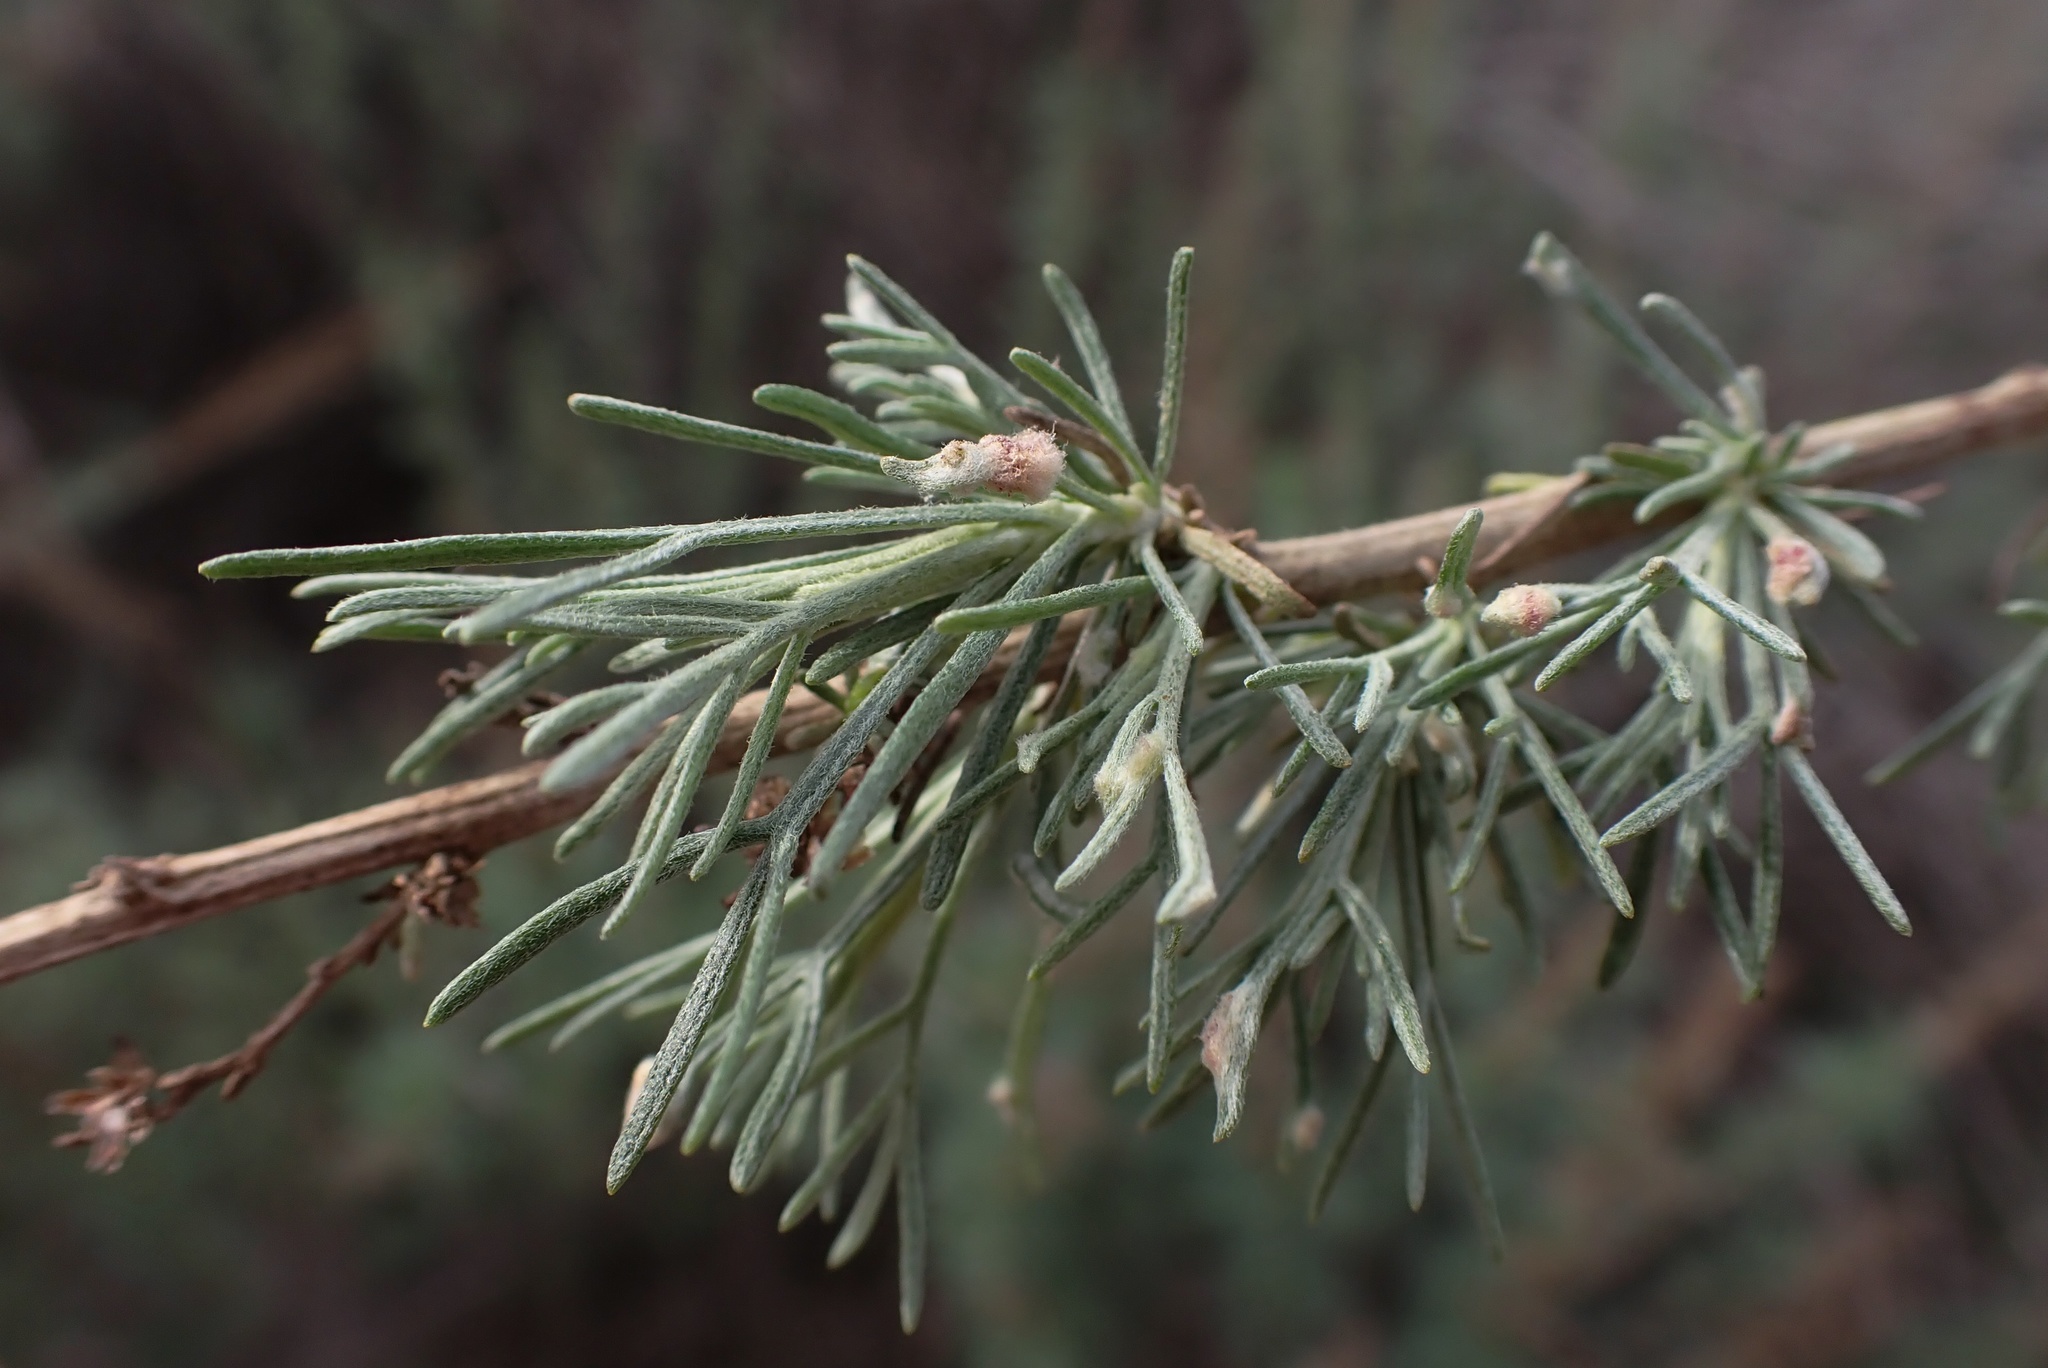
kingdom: Animalia
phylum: Arthropoda
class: Arachnida
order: Trombidiformes
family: Eriophyidae
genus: Aceria
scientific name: Aceria
